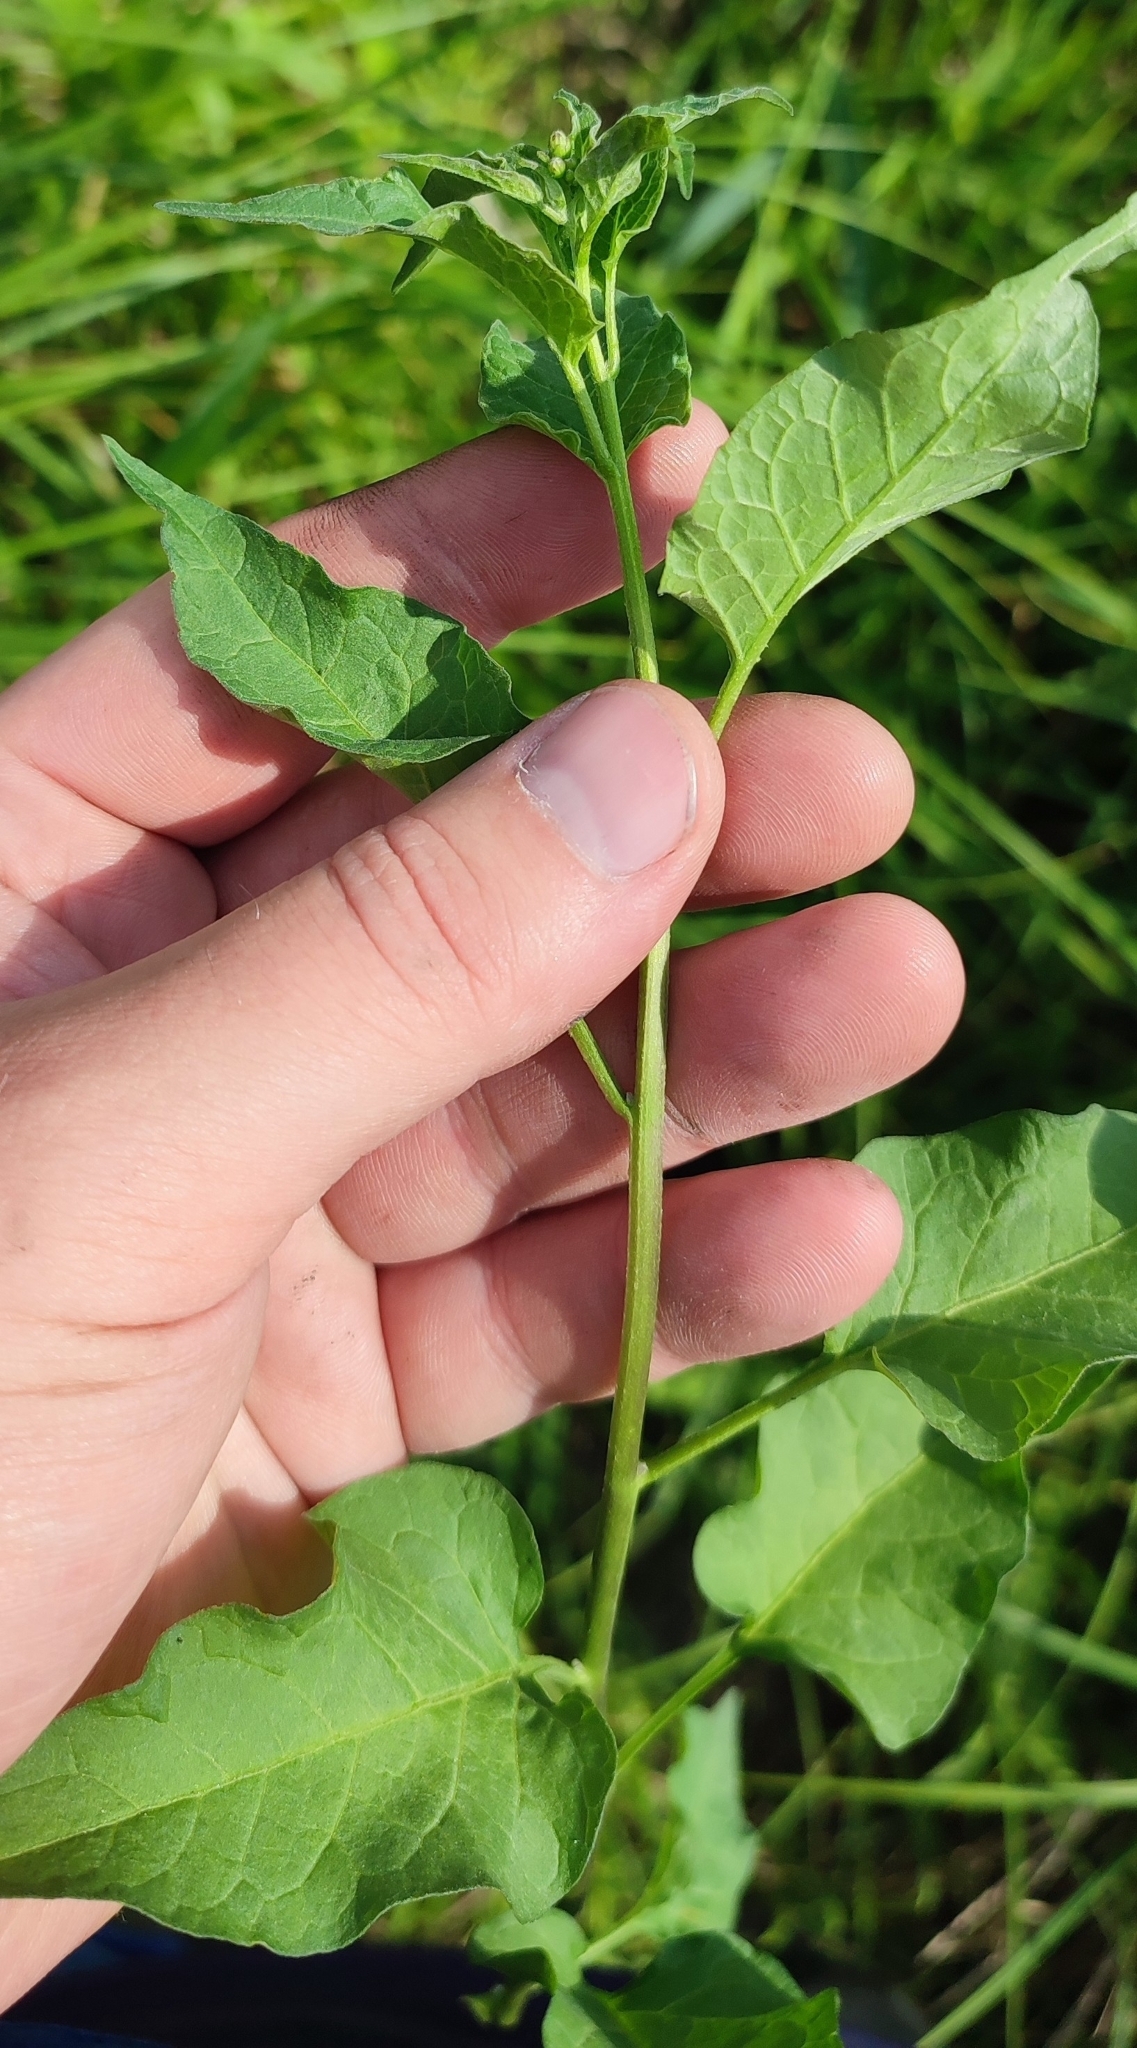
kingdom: Plantae
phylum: Tracheophyta
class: Magnoliopsida
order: Solanales
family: Solanaceae
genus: Solanum
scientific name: Solanum dulcamara
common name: Climbing nightshade
